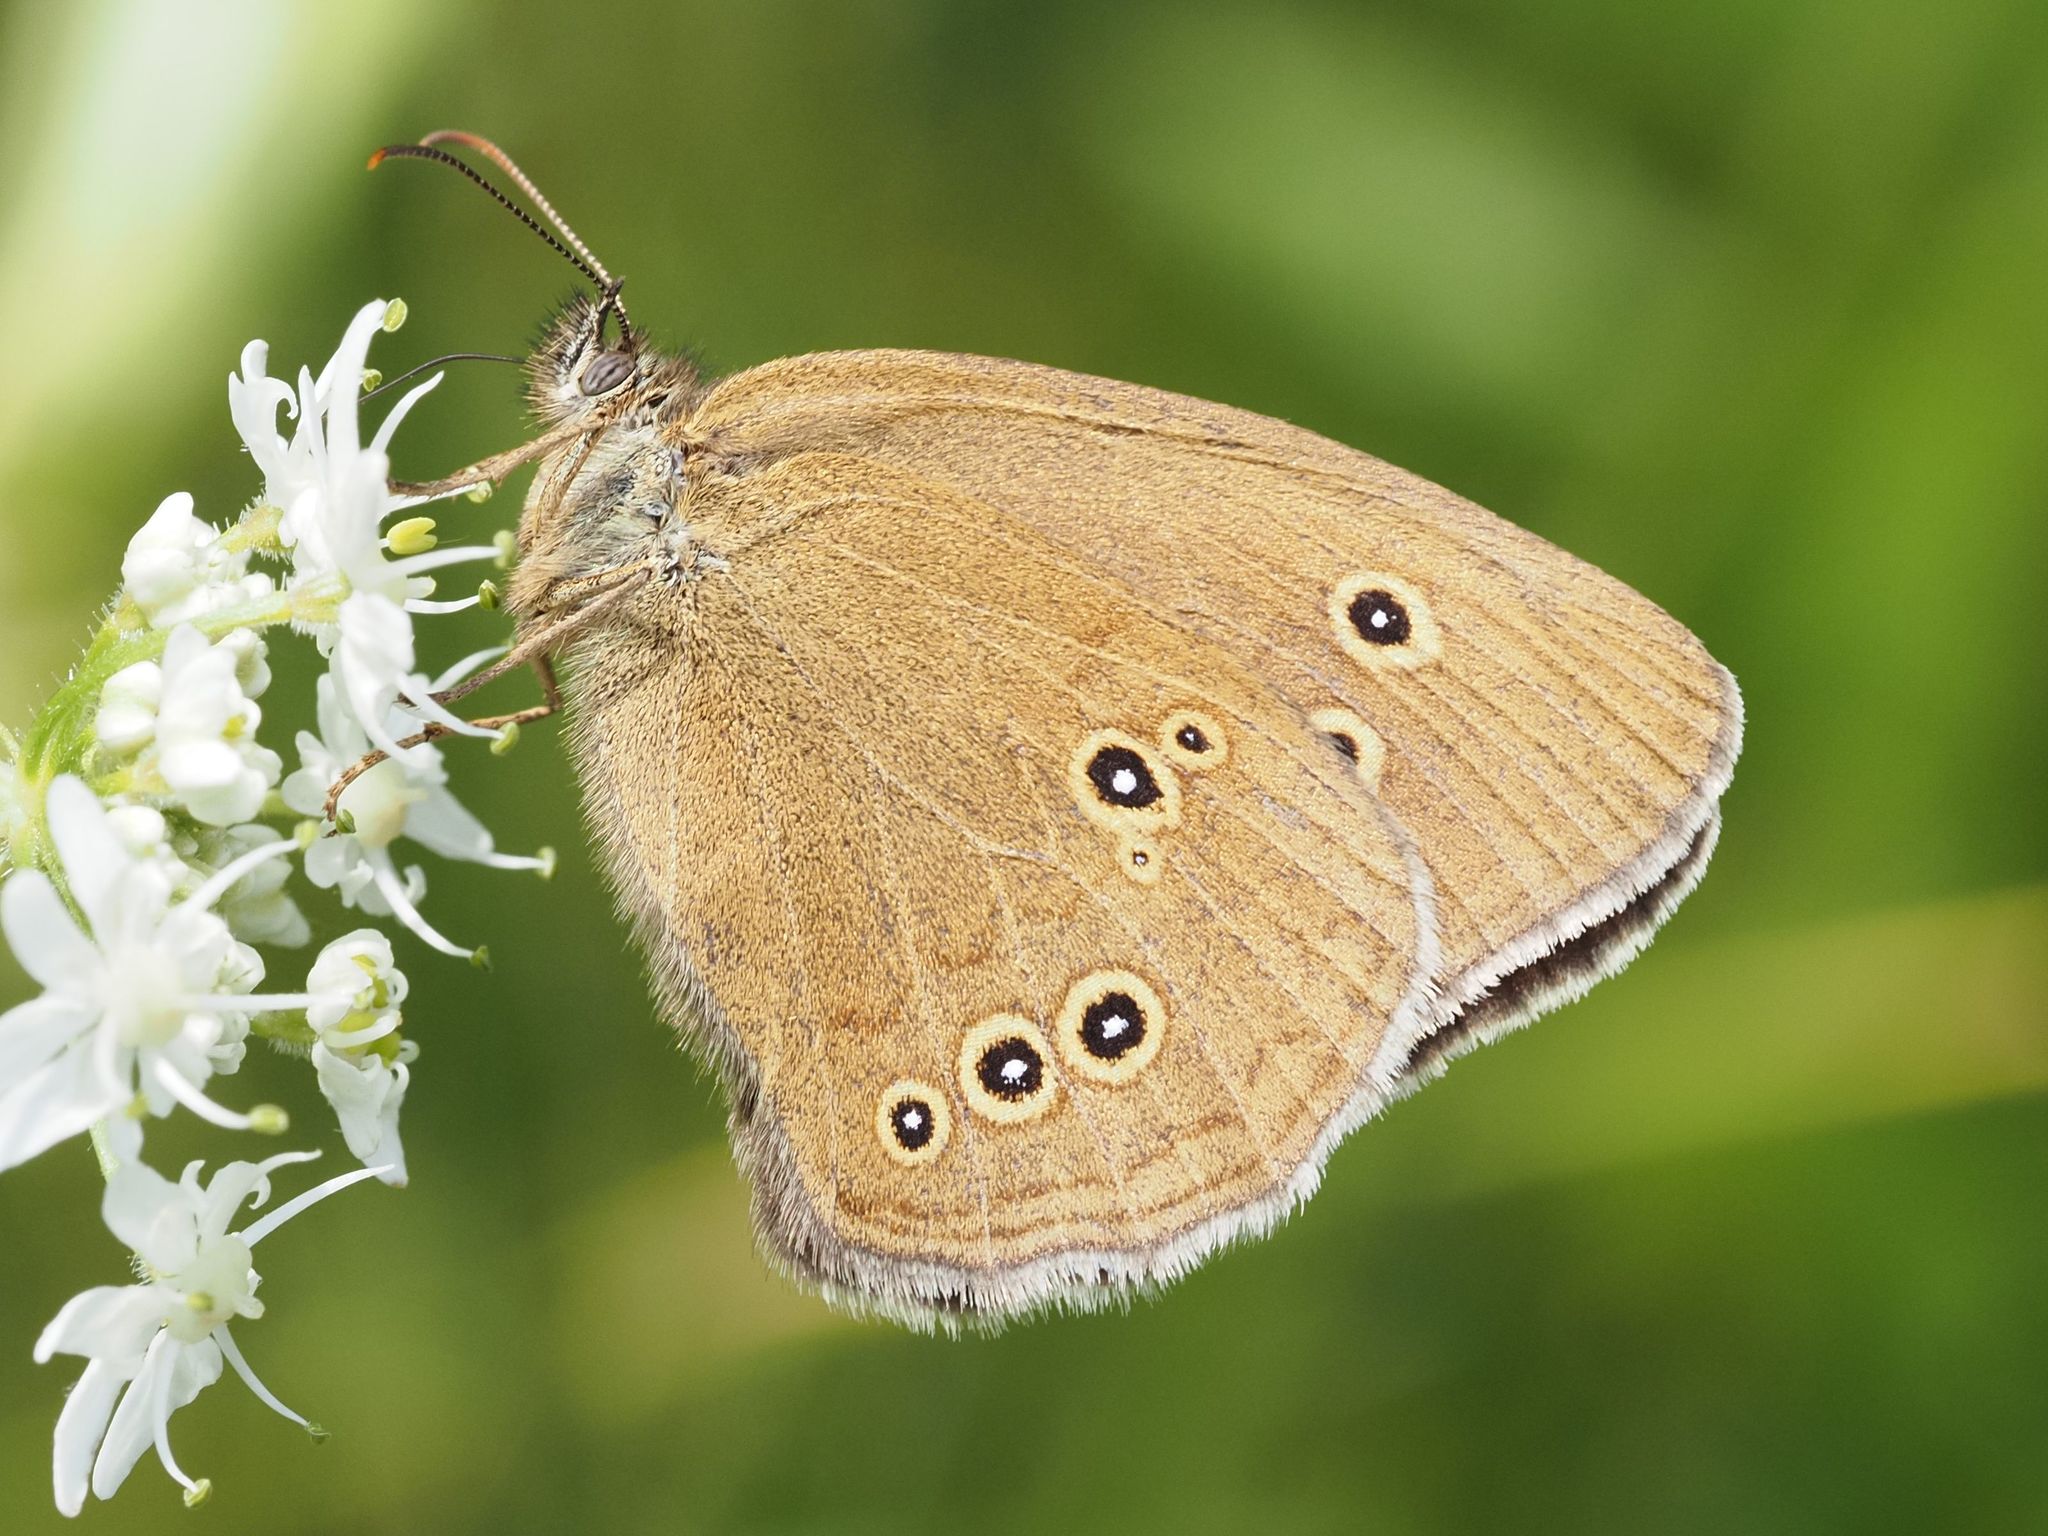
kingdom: Animalia
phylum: Arthropoda
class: Insecta
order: Lepidoptera
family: Nymphalidae
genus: Aphantopus
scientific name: Aphantopus hyperantus
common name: Ringlet
